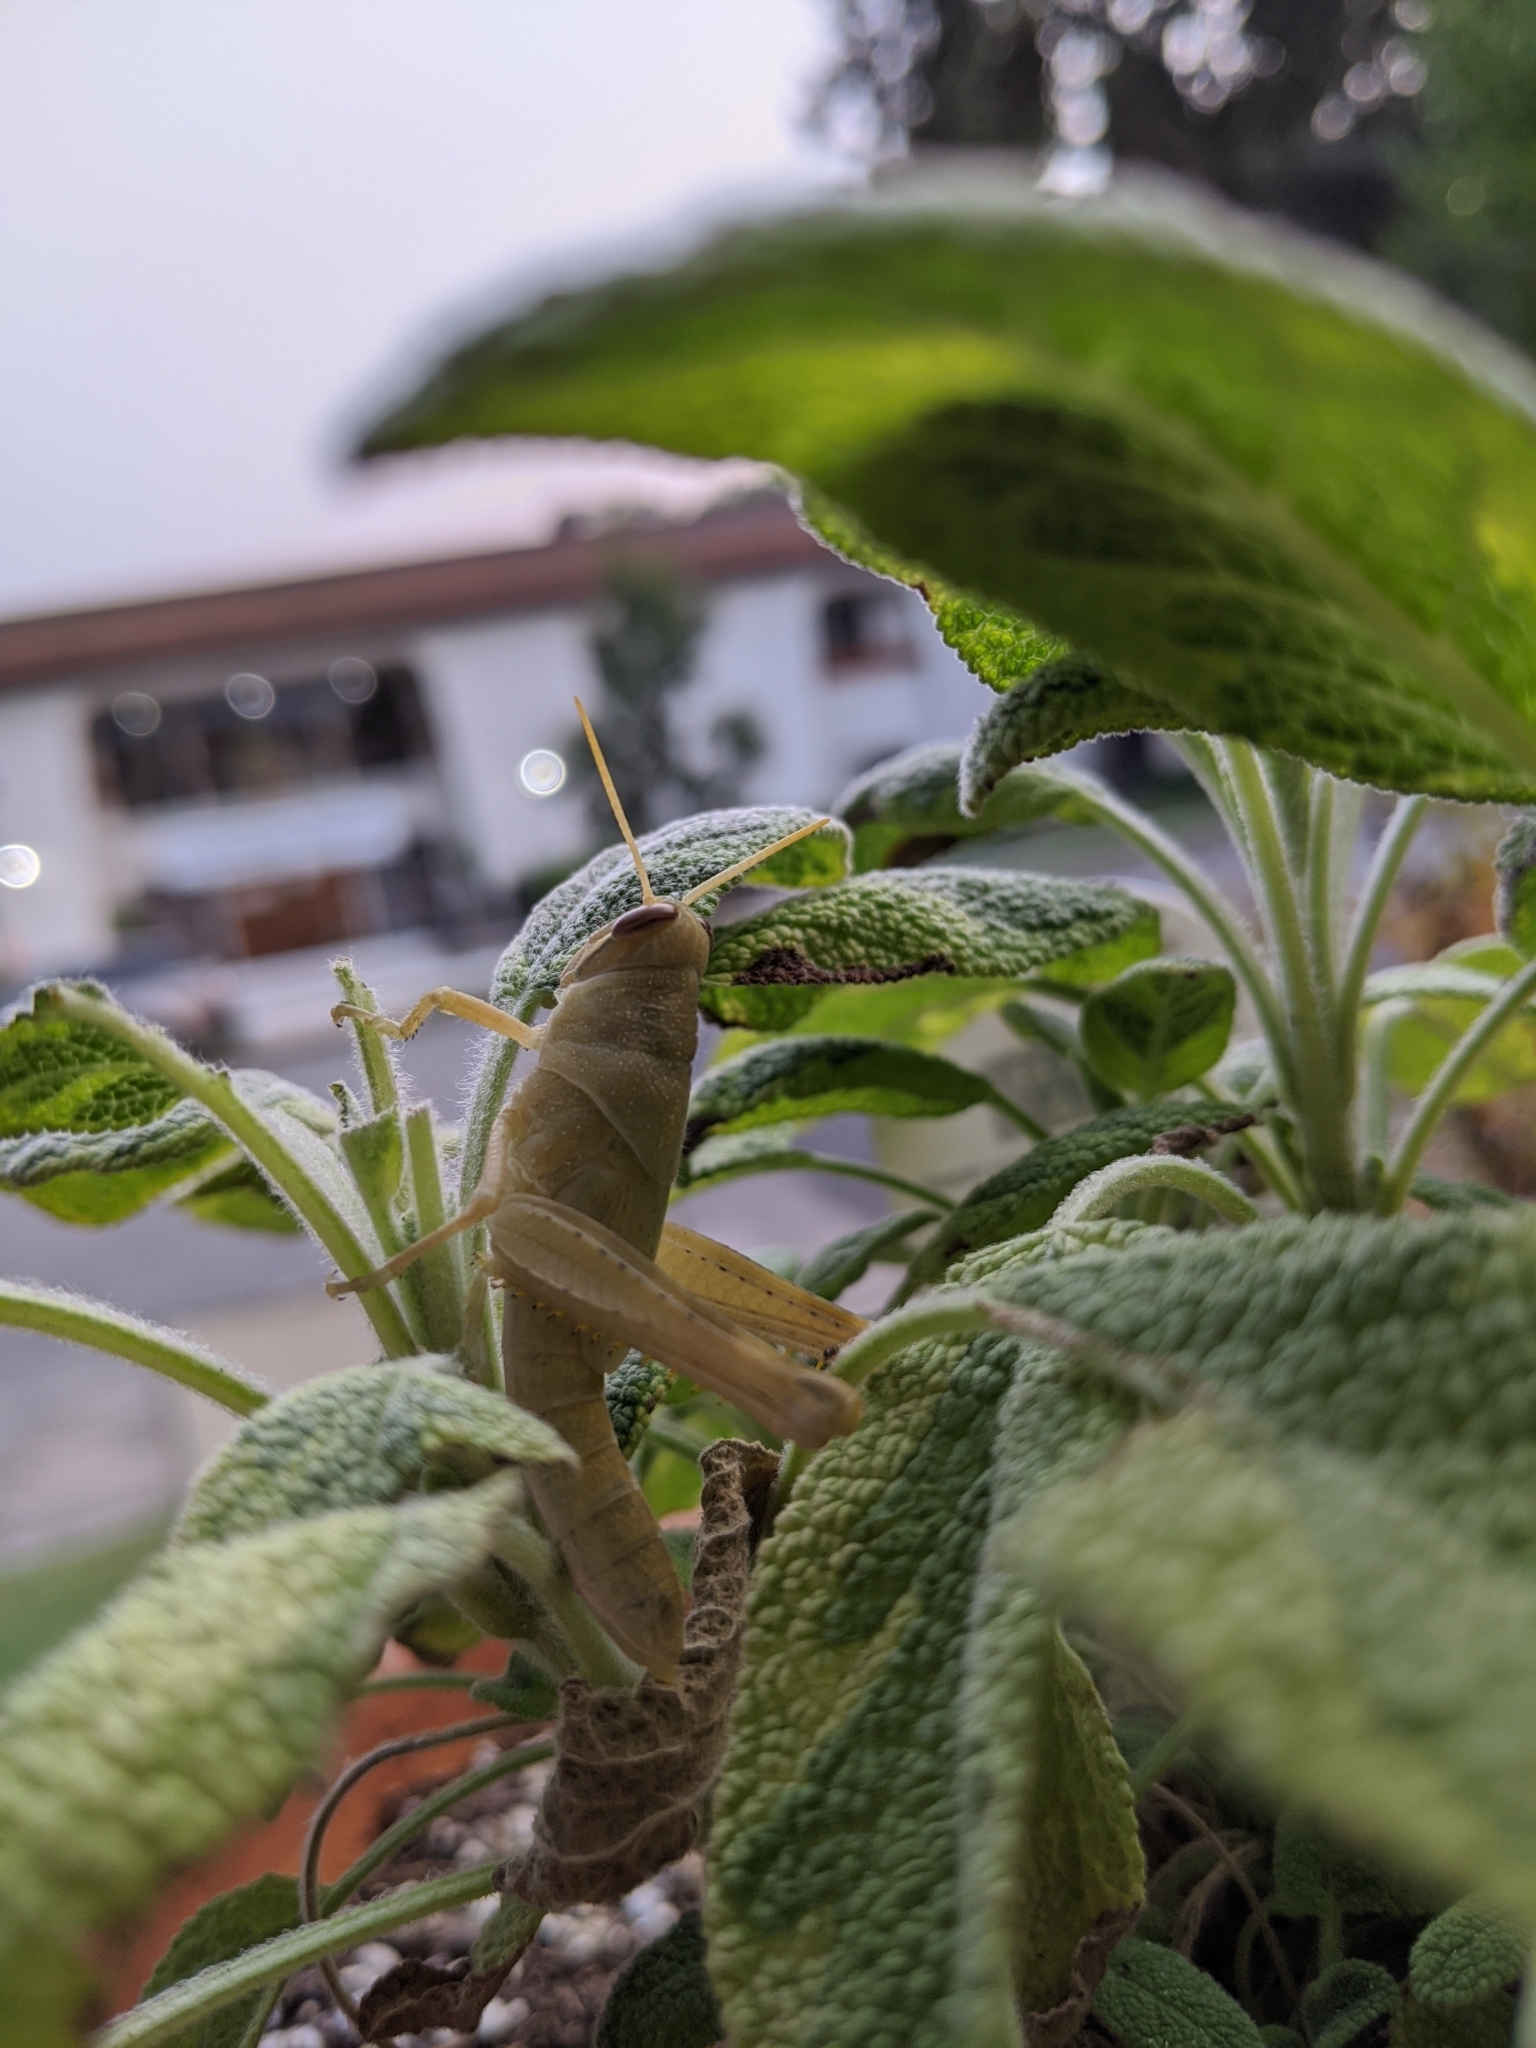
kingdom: Animalia
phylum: Arthropoda
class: Insecta
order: Orthoptera
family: Acrididae
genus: Schistocerca
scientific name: Schistocerca nitens
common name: Vagrant grasshopper
